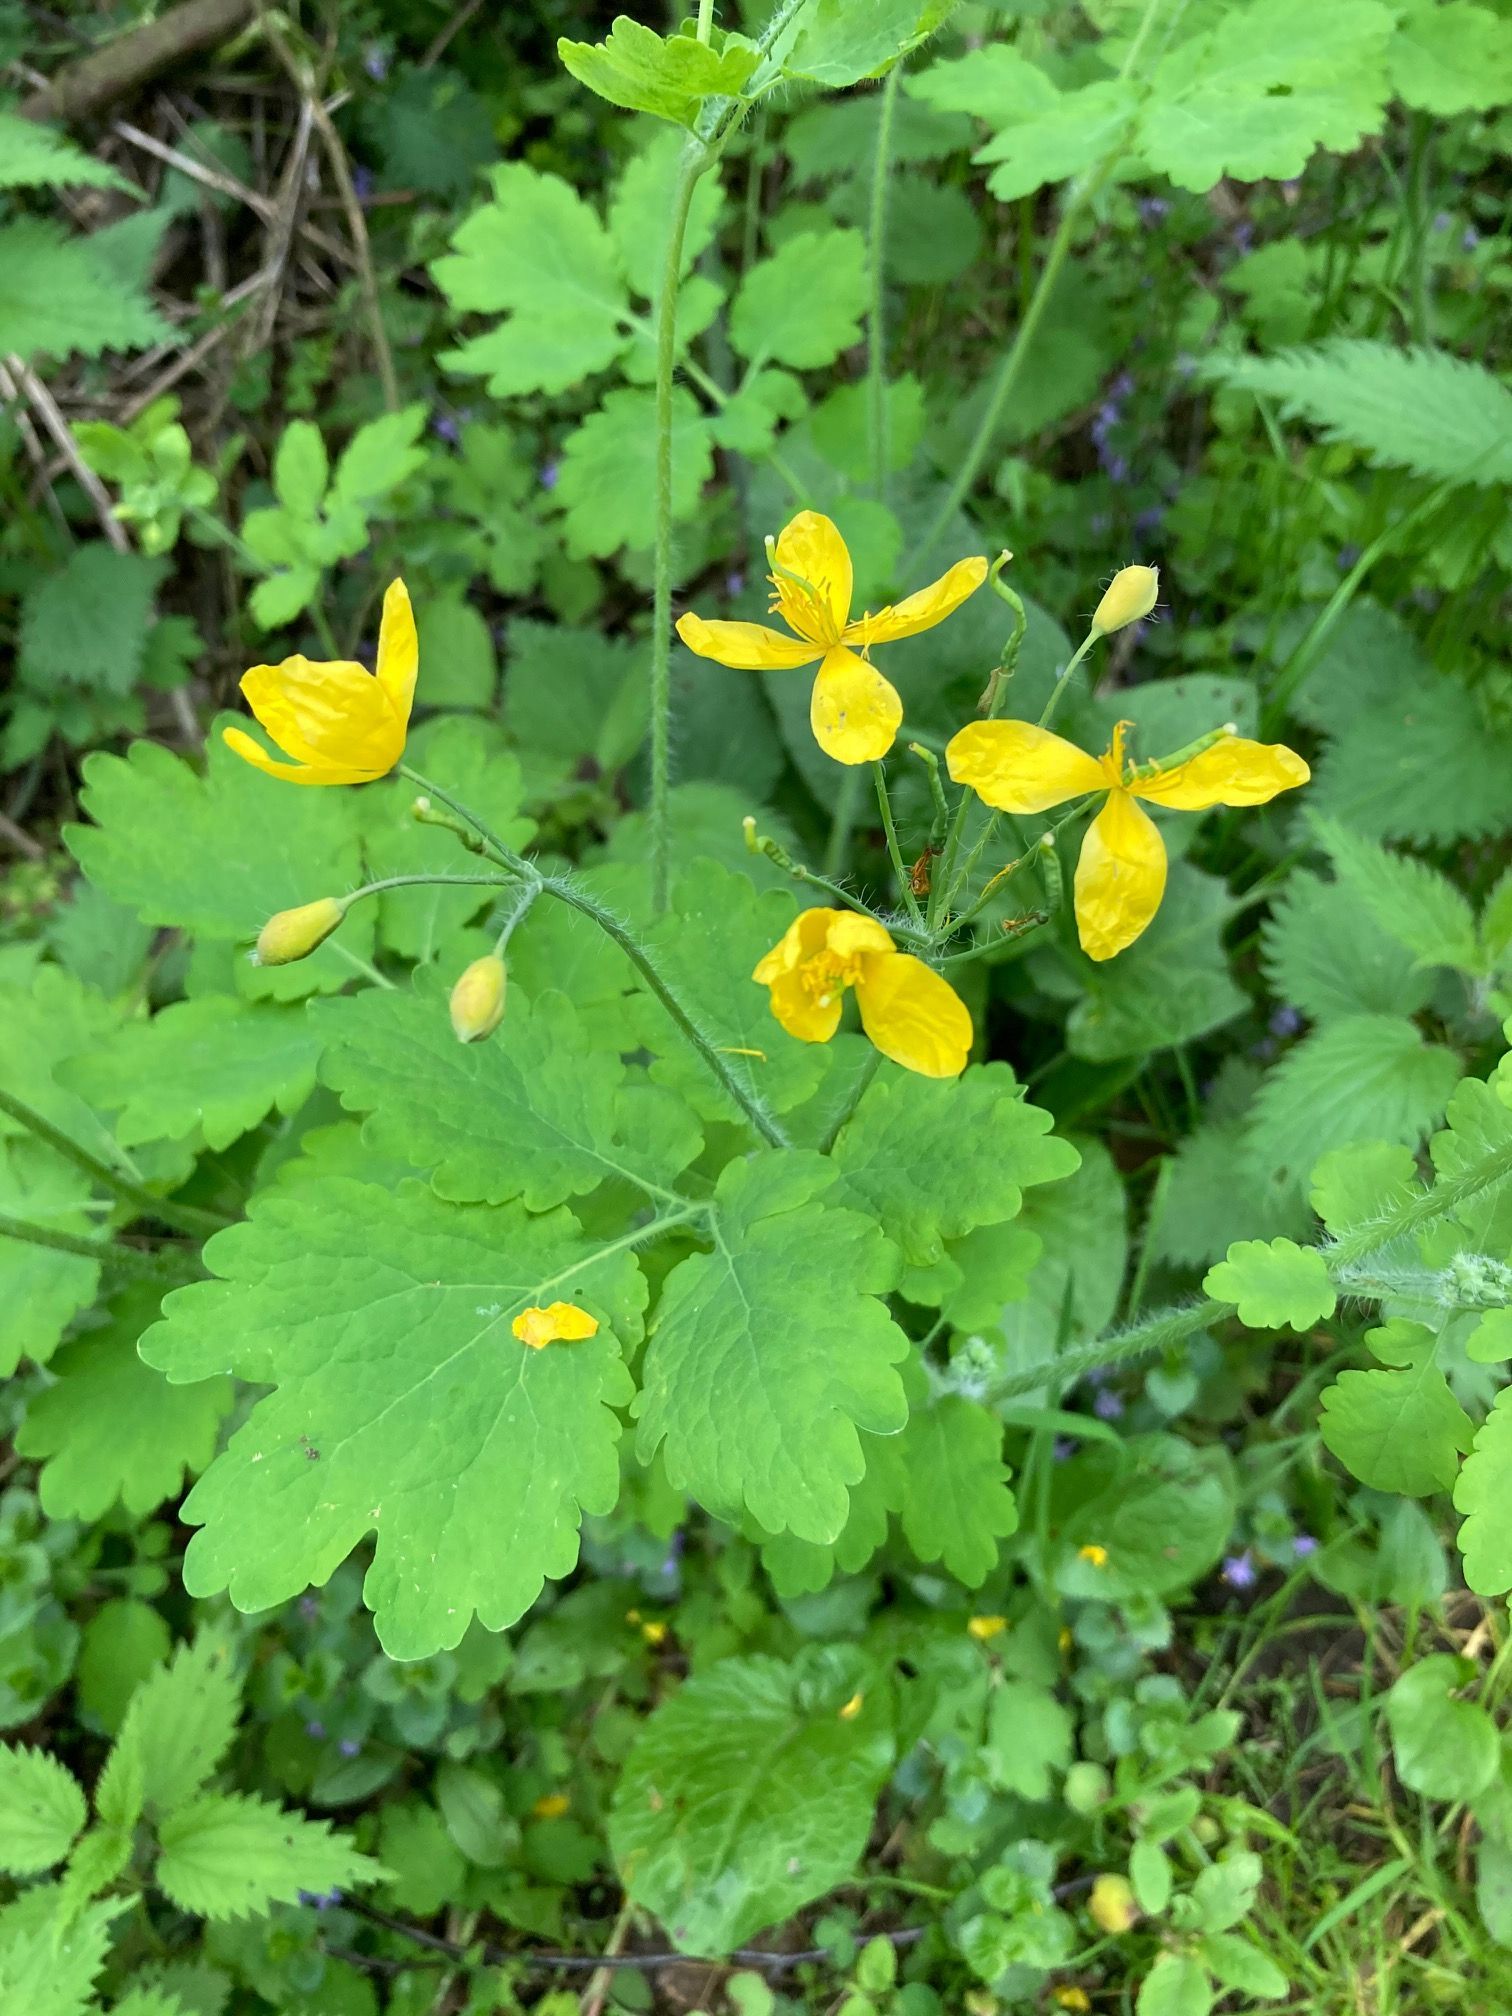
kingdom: Plantae
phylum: Tracheophyta
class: Magnoliopsida
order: Ranunculales
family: Papaveraceae
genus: Chelidonium
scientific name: Chelidonium majus
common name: Greater celandine
